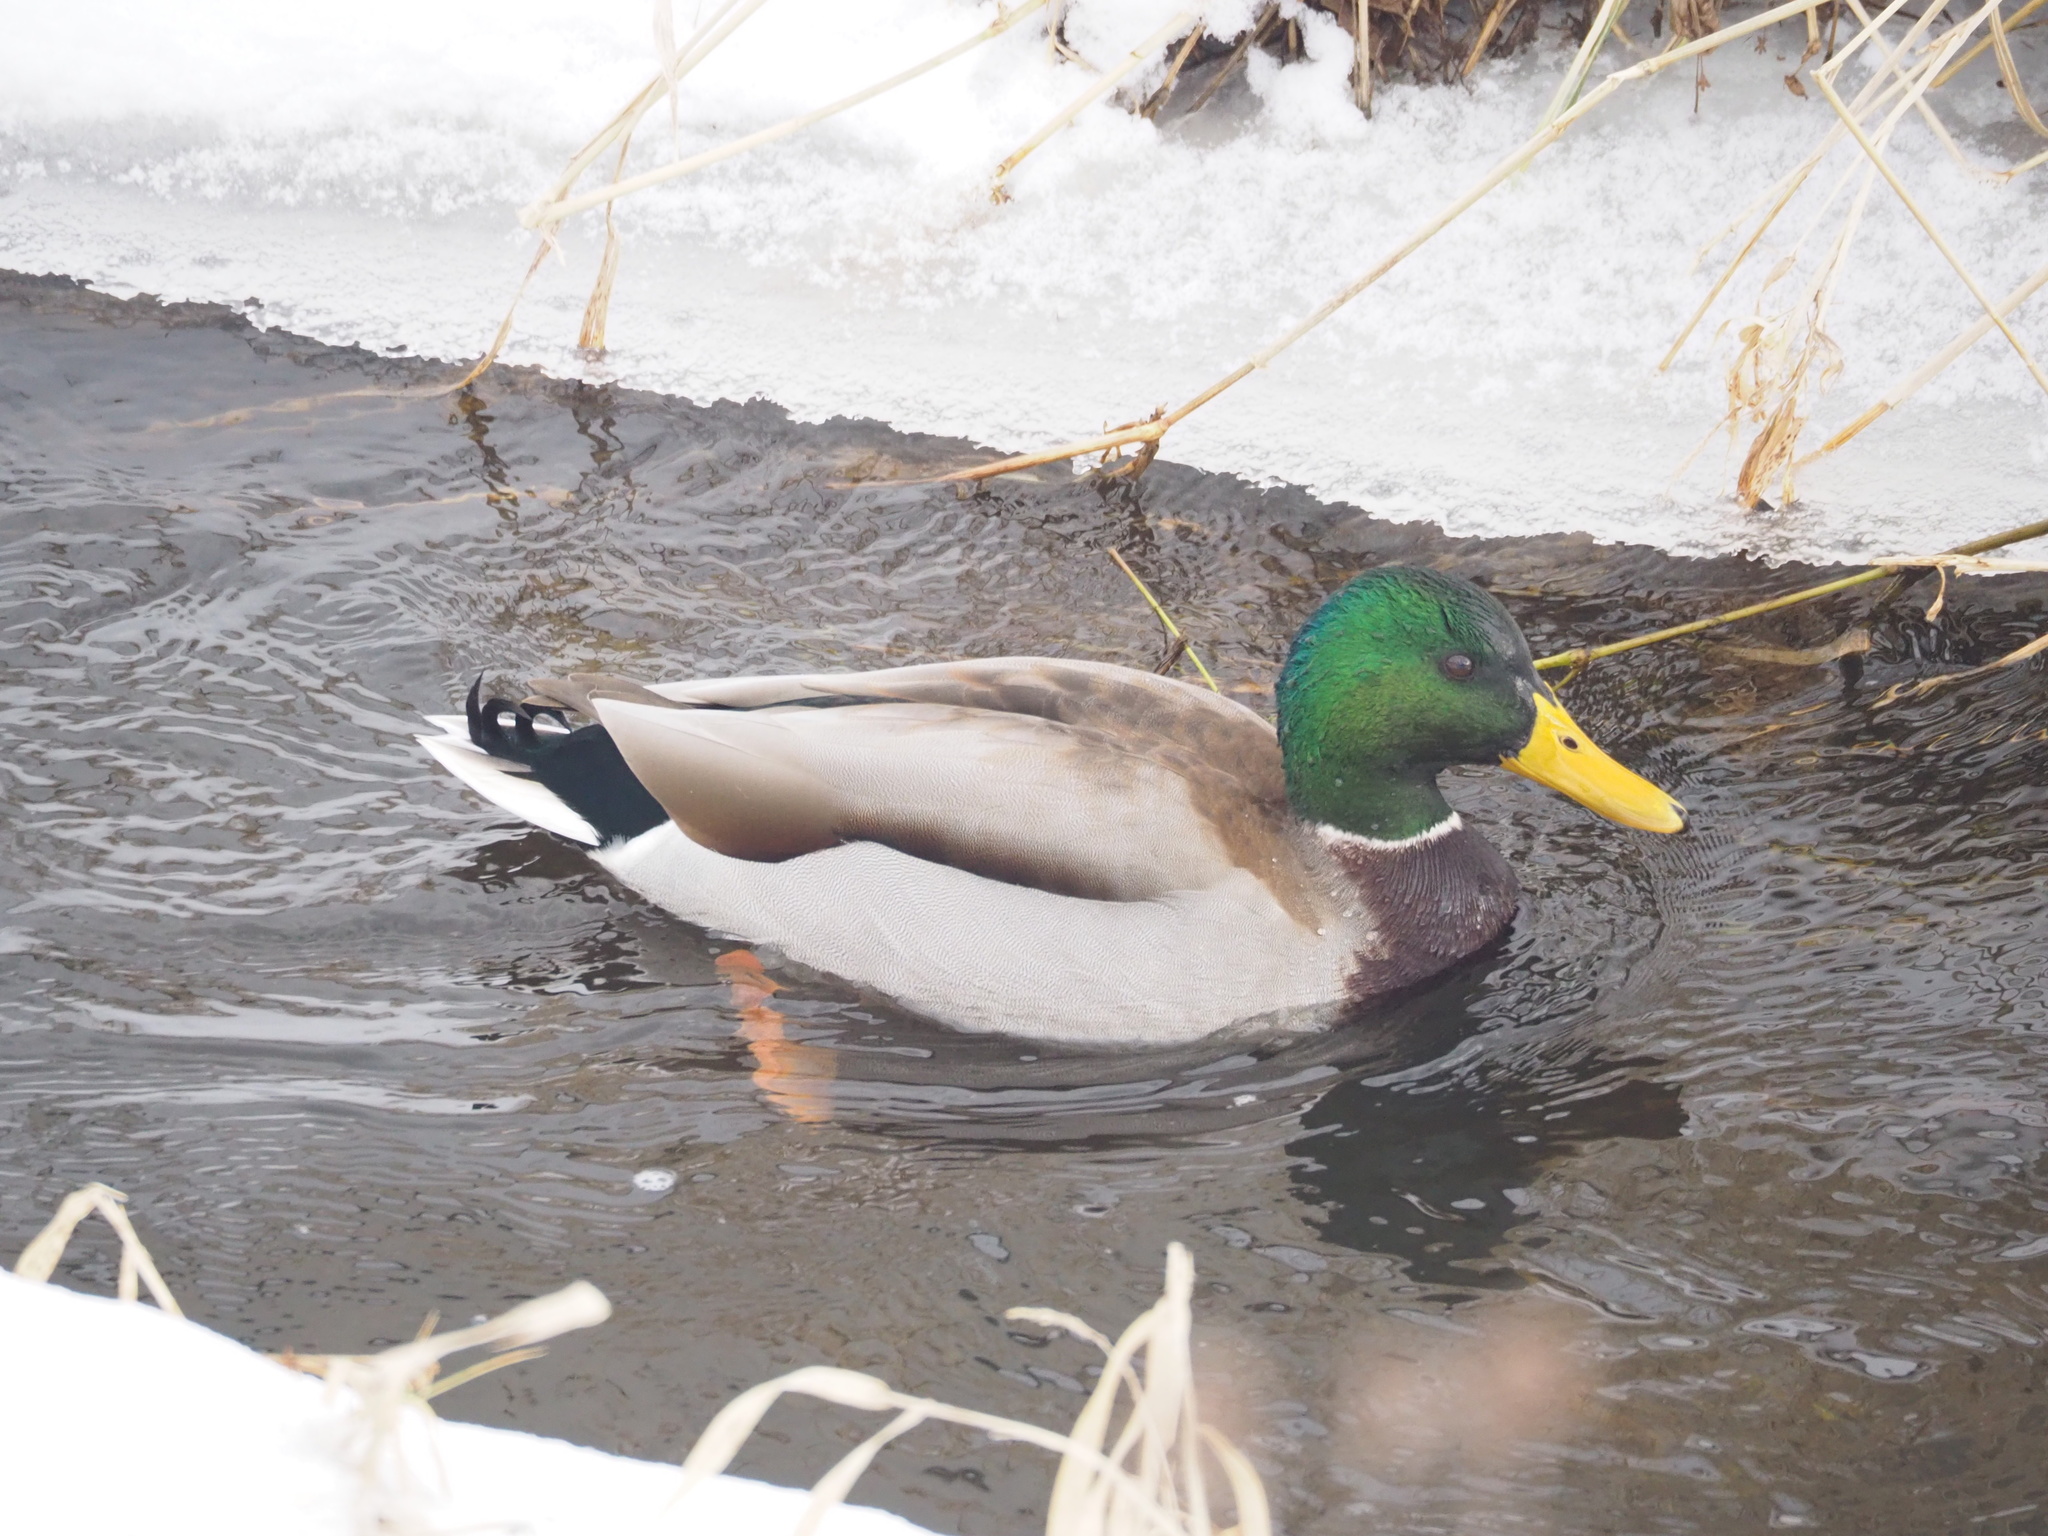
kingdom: Animalia
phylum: Chordata
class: Aves
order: Anseriformes
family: Anatidae
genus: Anas
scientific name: Anas platyrhynchos
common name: Mallard
